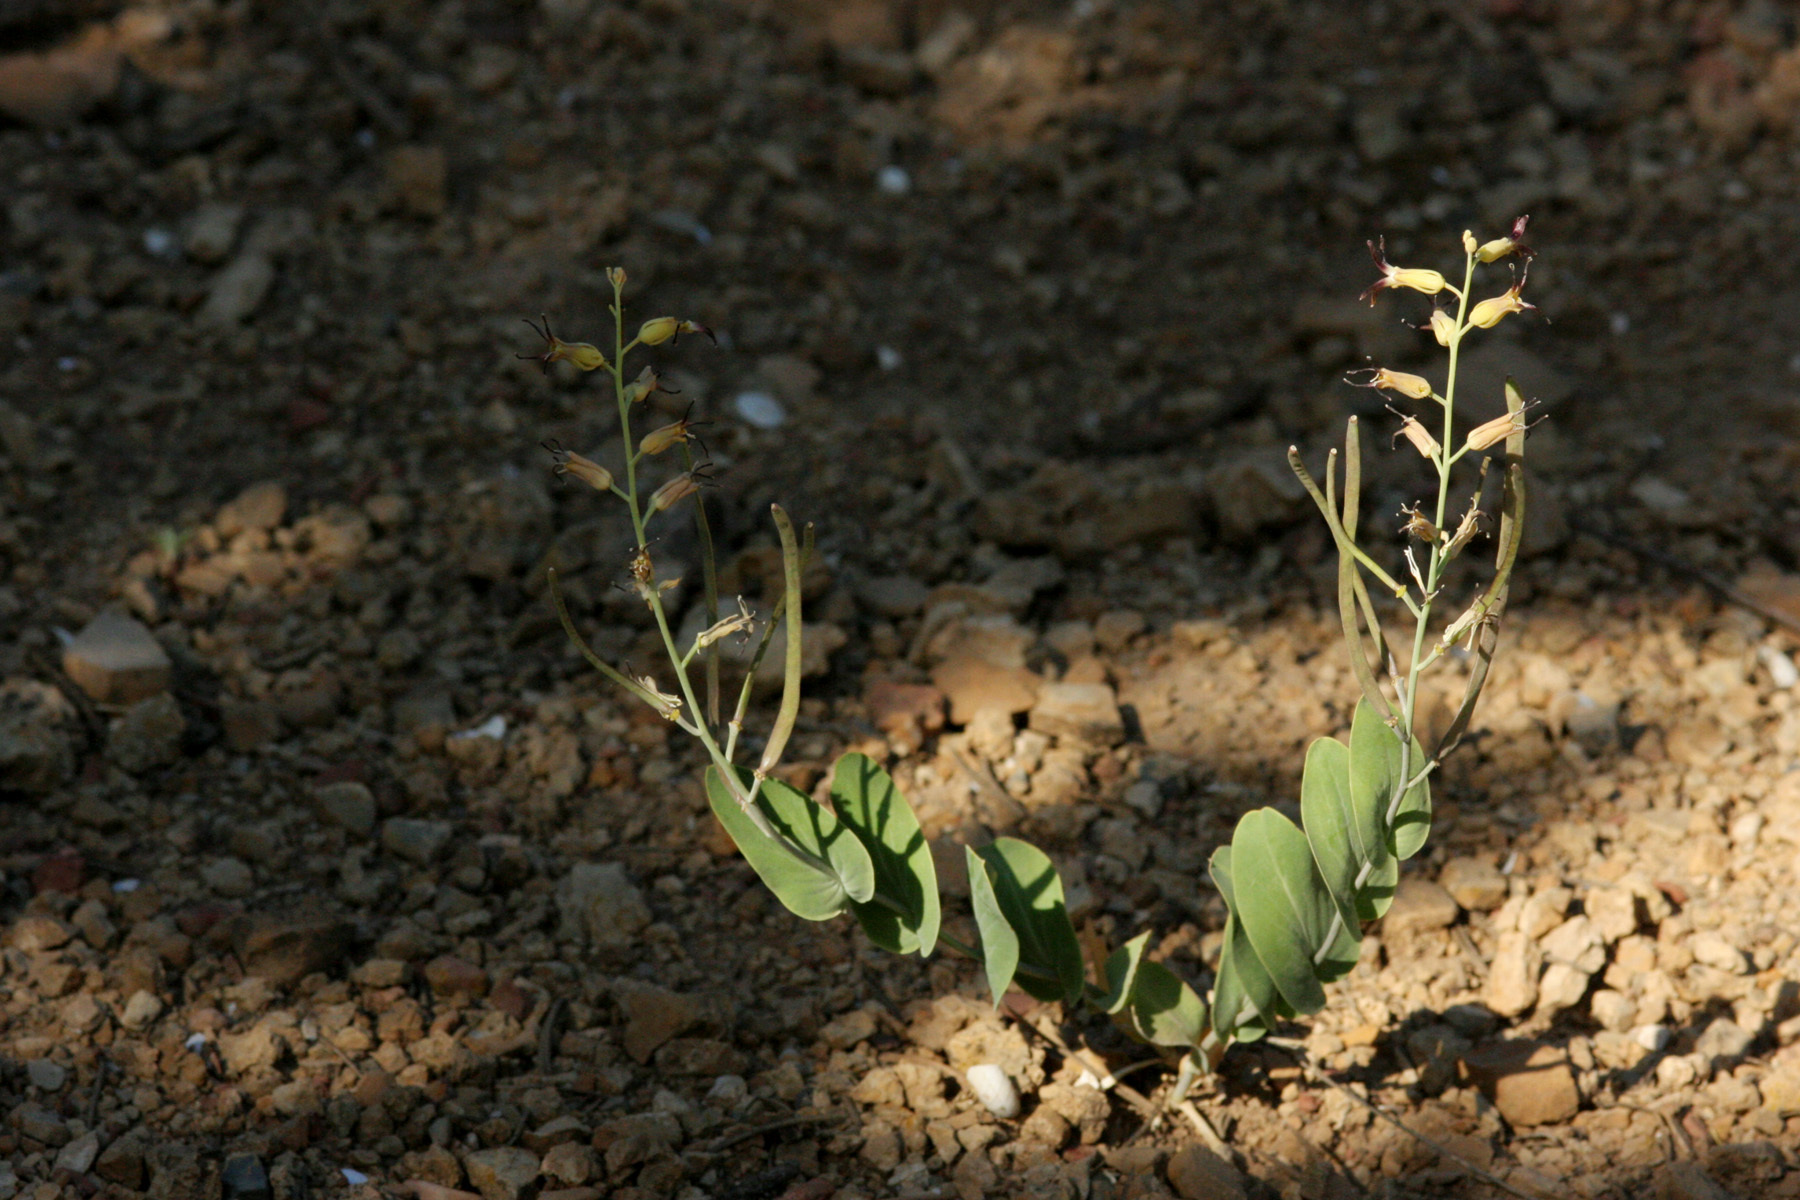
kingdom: Plantae
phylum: Tracheophyta
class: Magnoliopsida
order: Brassicales
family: Brassicaceae
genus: Streptanthus
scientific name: Streptanthus cordatus
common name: Heart-leaf jewel-flower
